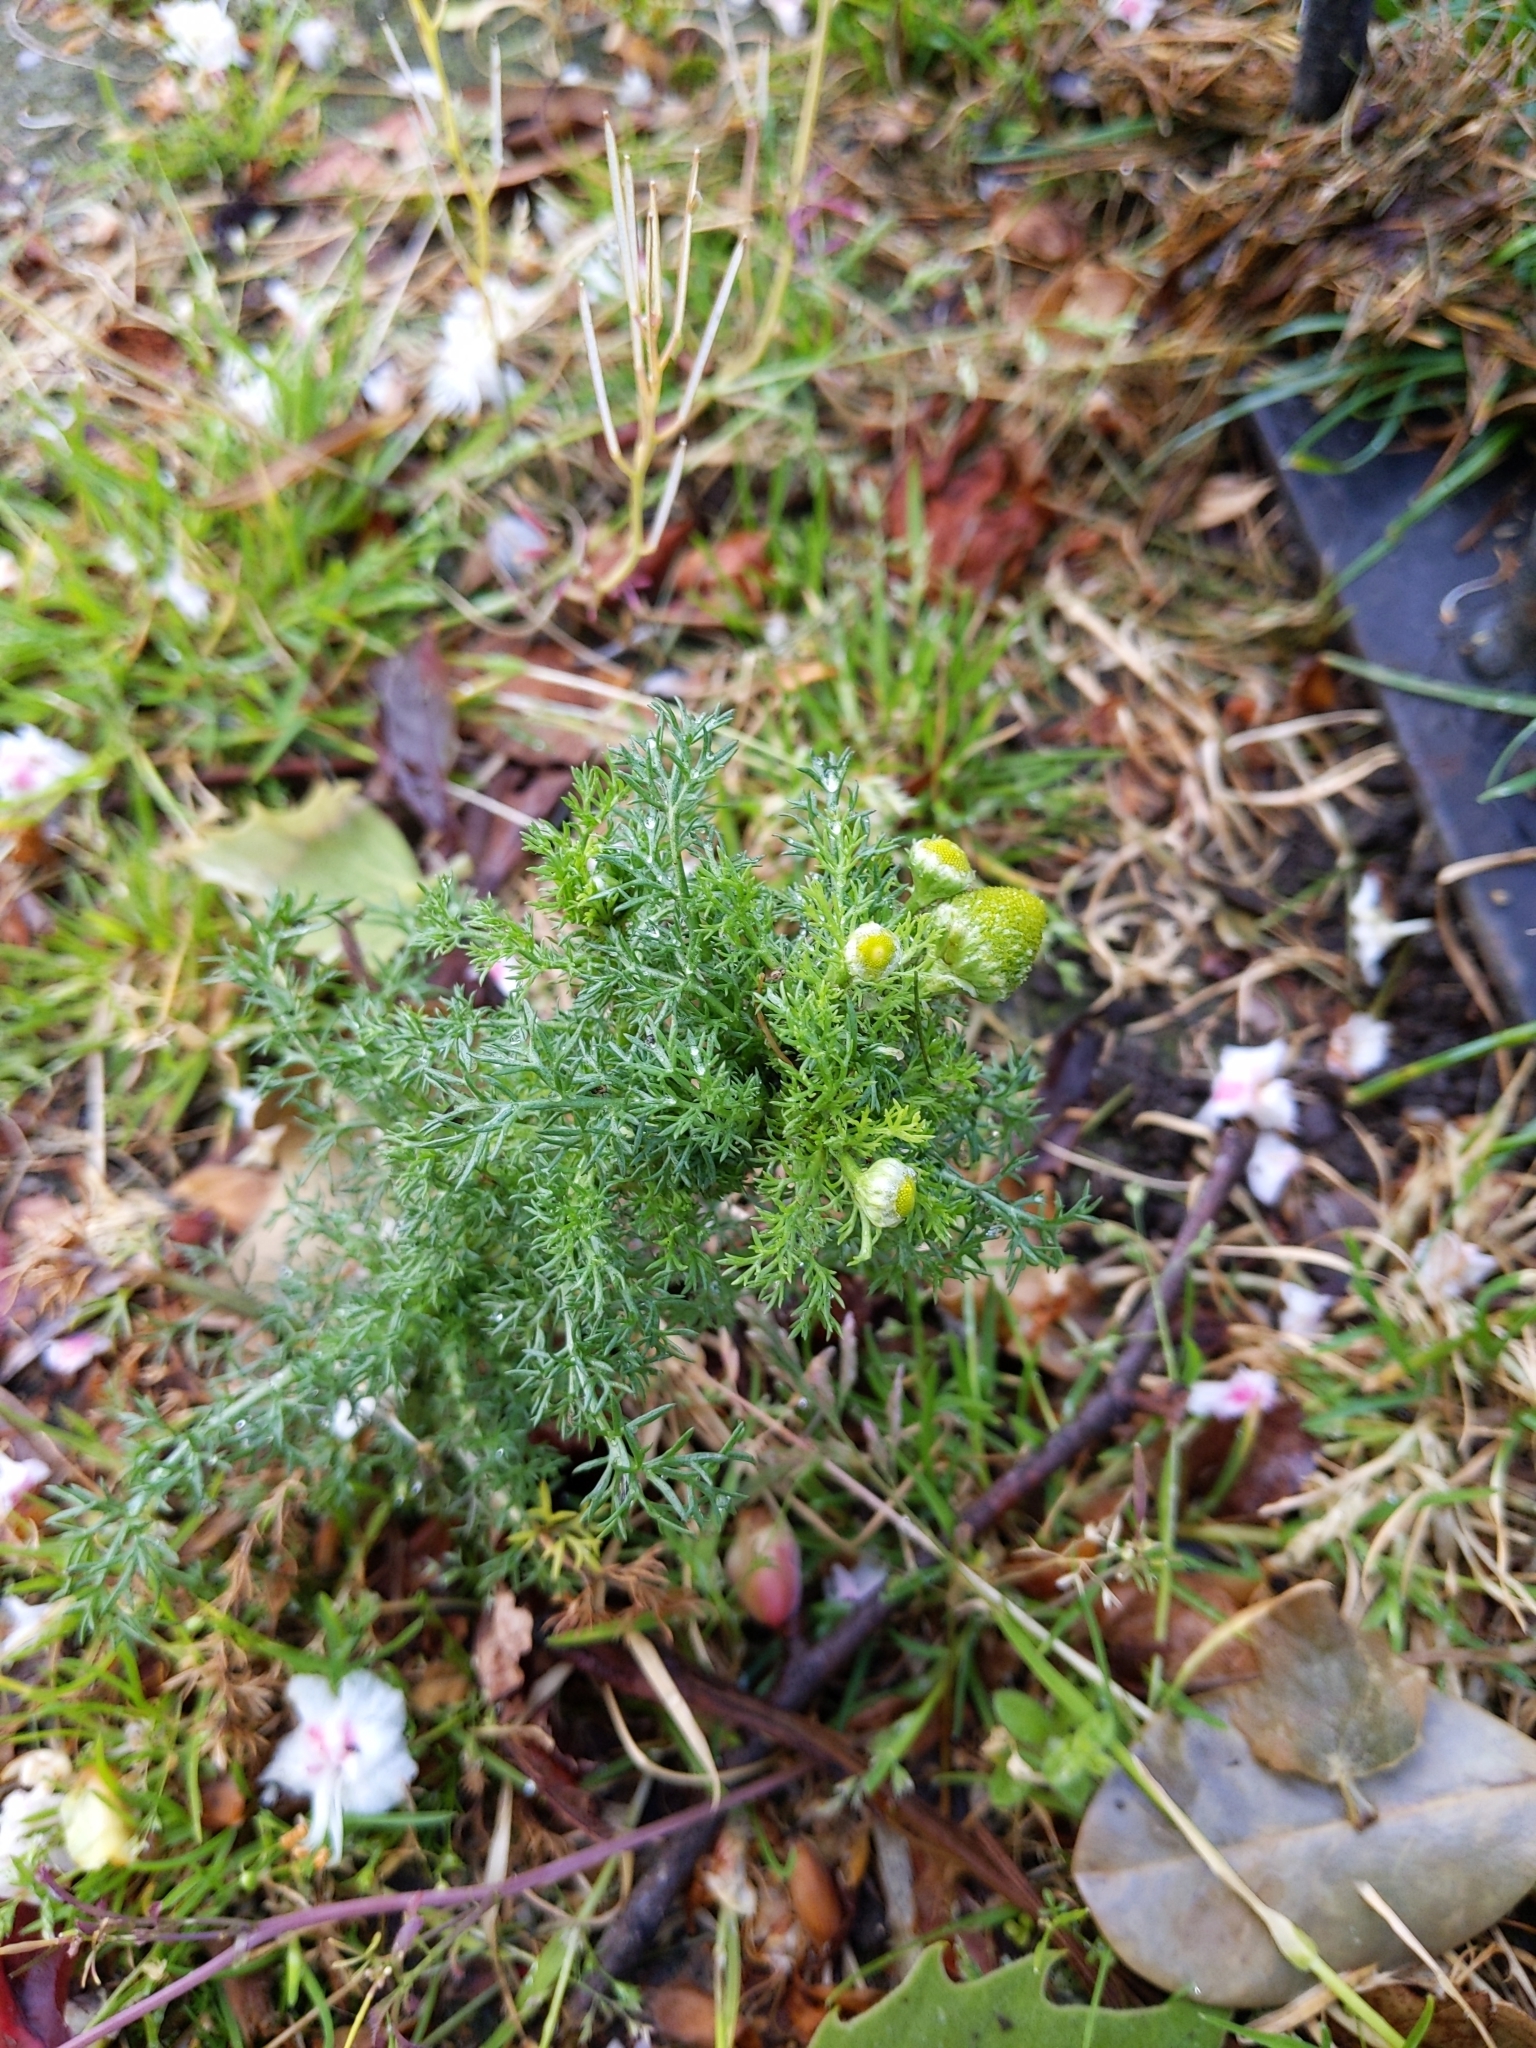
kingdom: Plantae
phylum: Tracheophyta
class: Magnoliopsida
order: Asterales
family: Asteraceae
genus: Matricaria
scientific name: Matricaria discoidea
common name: Disc mayweed
